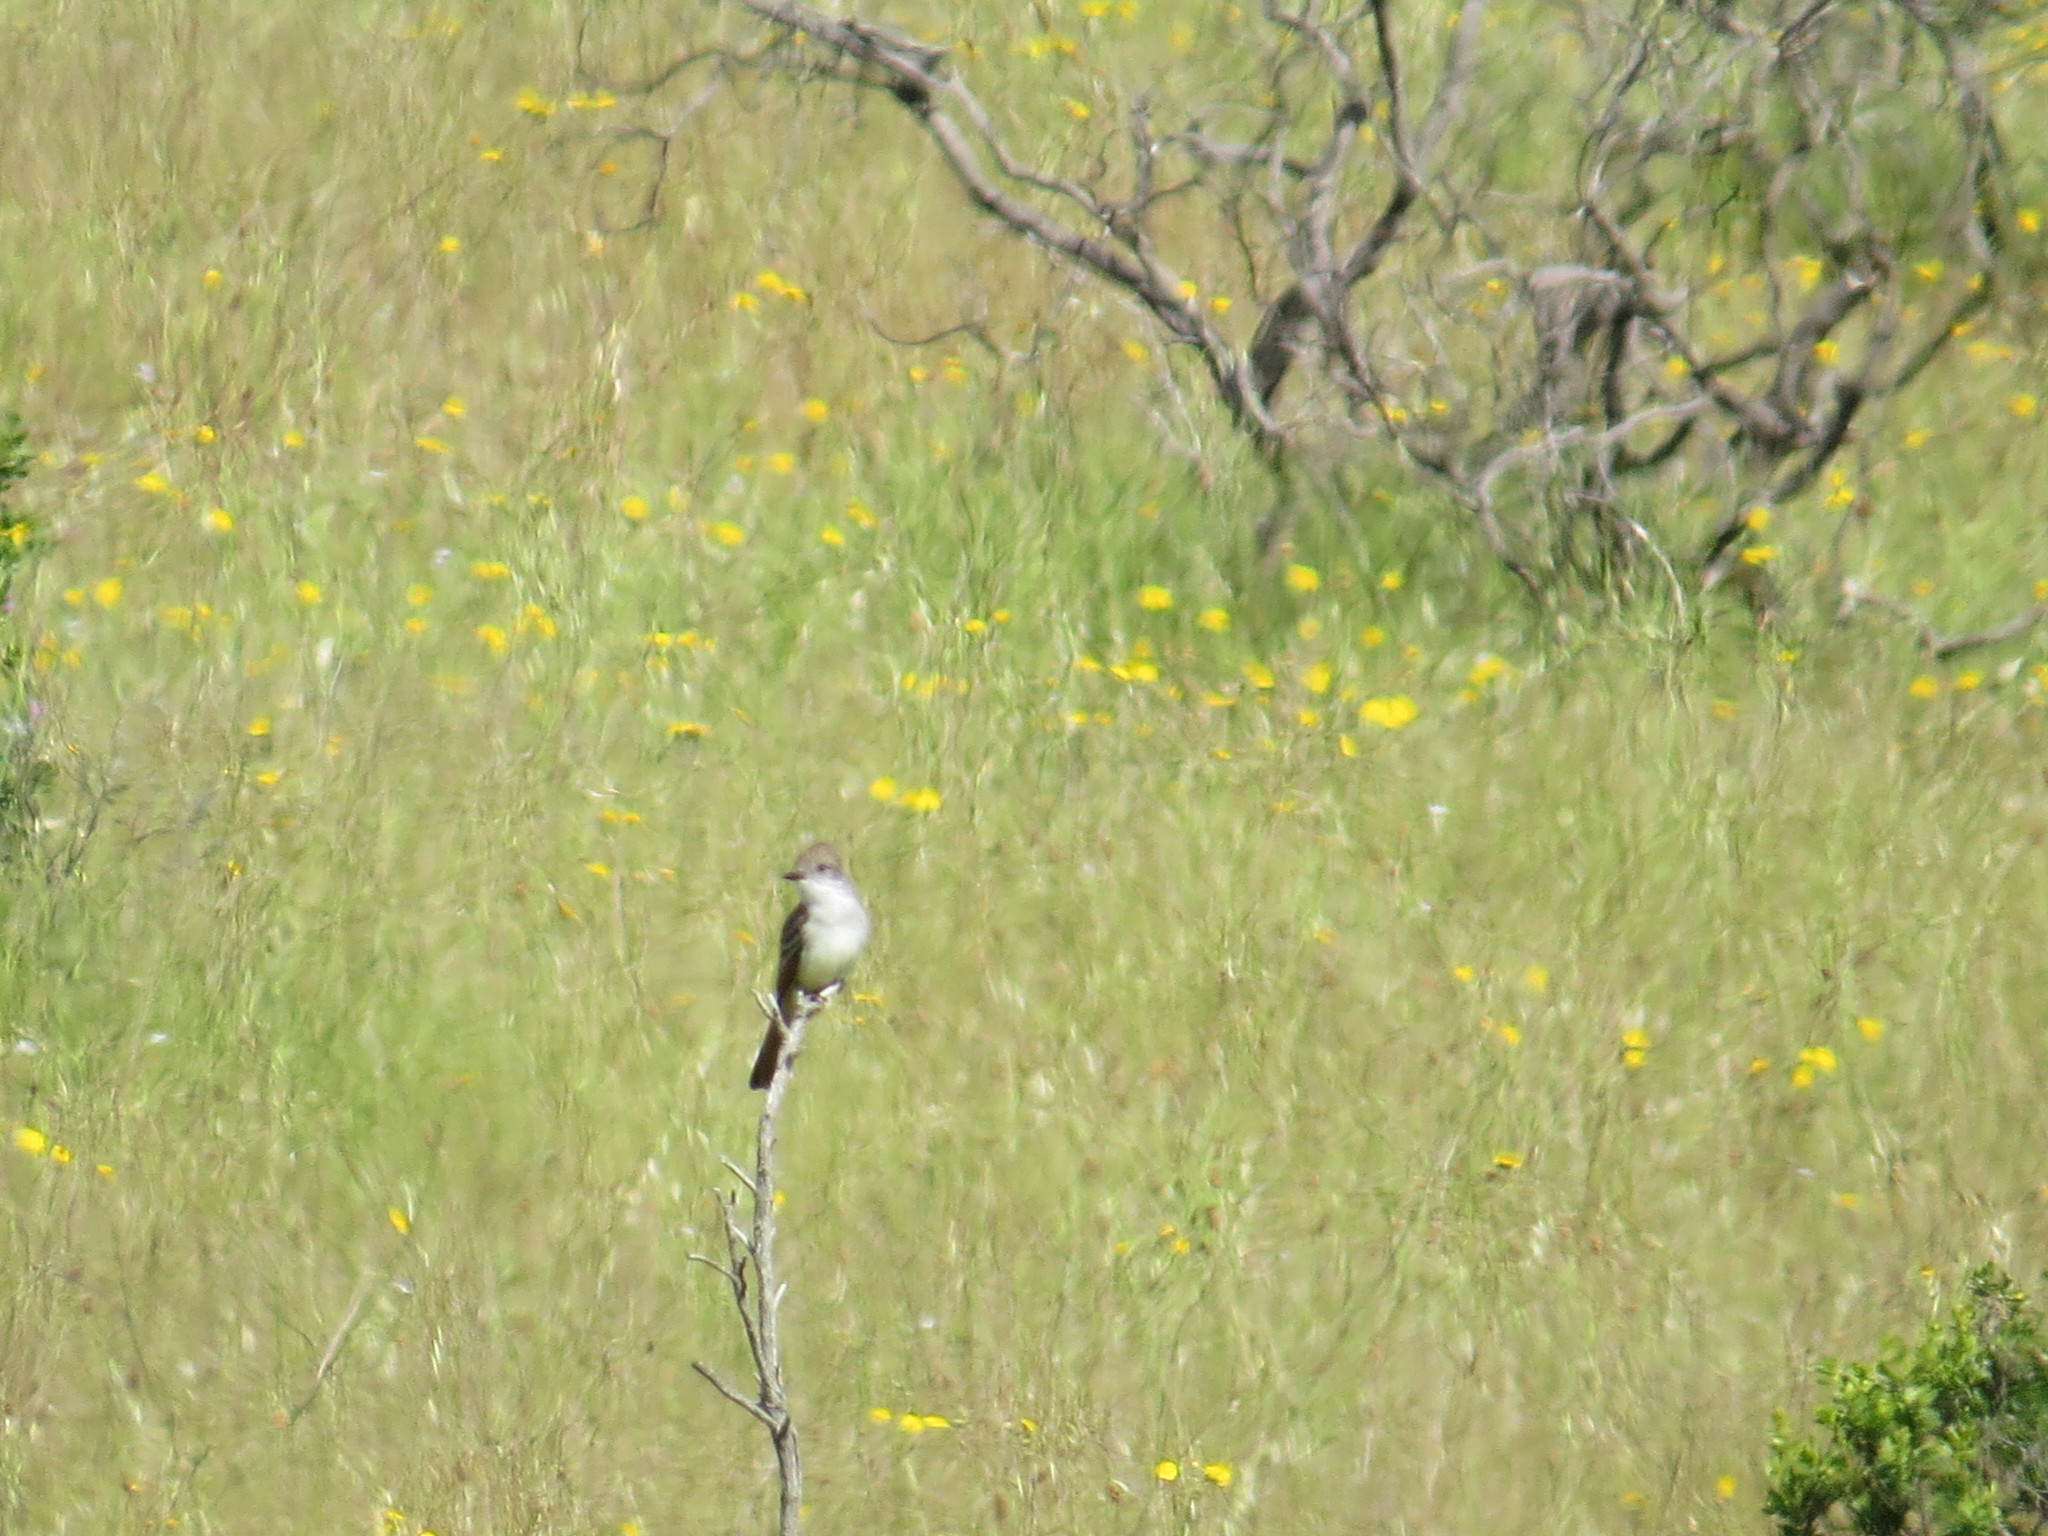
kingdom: Animalia
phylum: Chordata
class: Aves
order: Passeriformes
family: Tyrannidae
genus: Myiarchus
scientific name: Myiarchus cinerascens
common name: Ash-throated flycatcher
